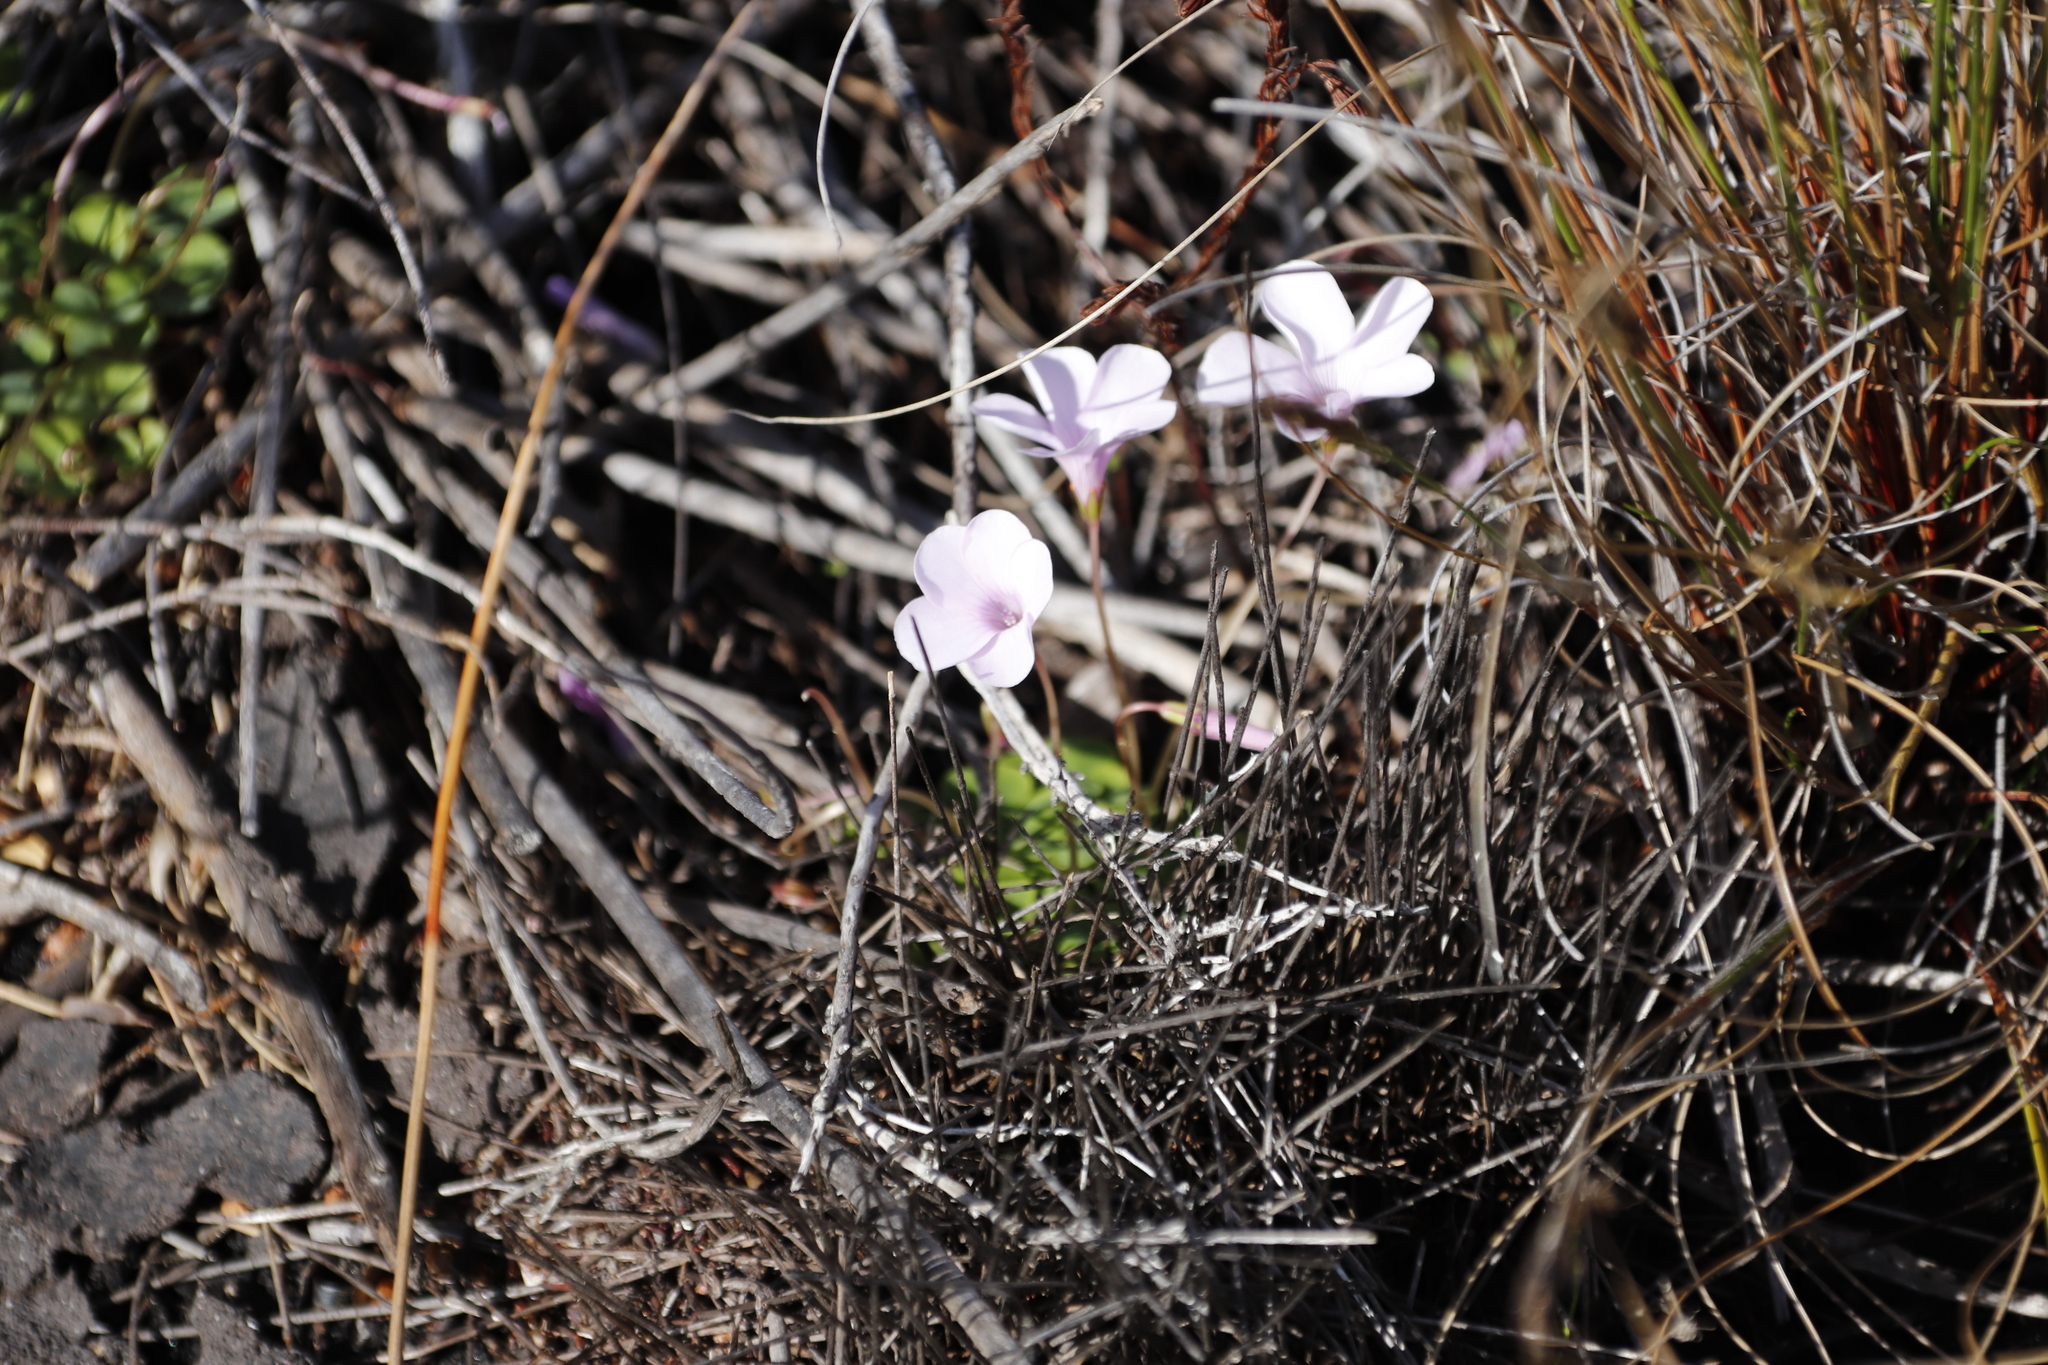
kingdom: Plantae
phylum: Tracheophyta
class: Magnoliopsida
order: Oxalidales
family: Oxalidaceae
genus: Oxalis
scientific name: Oxalis commutata
